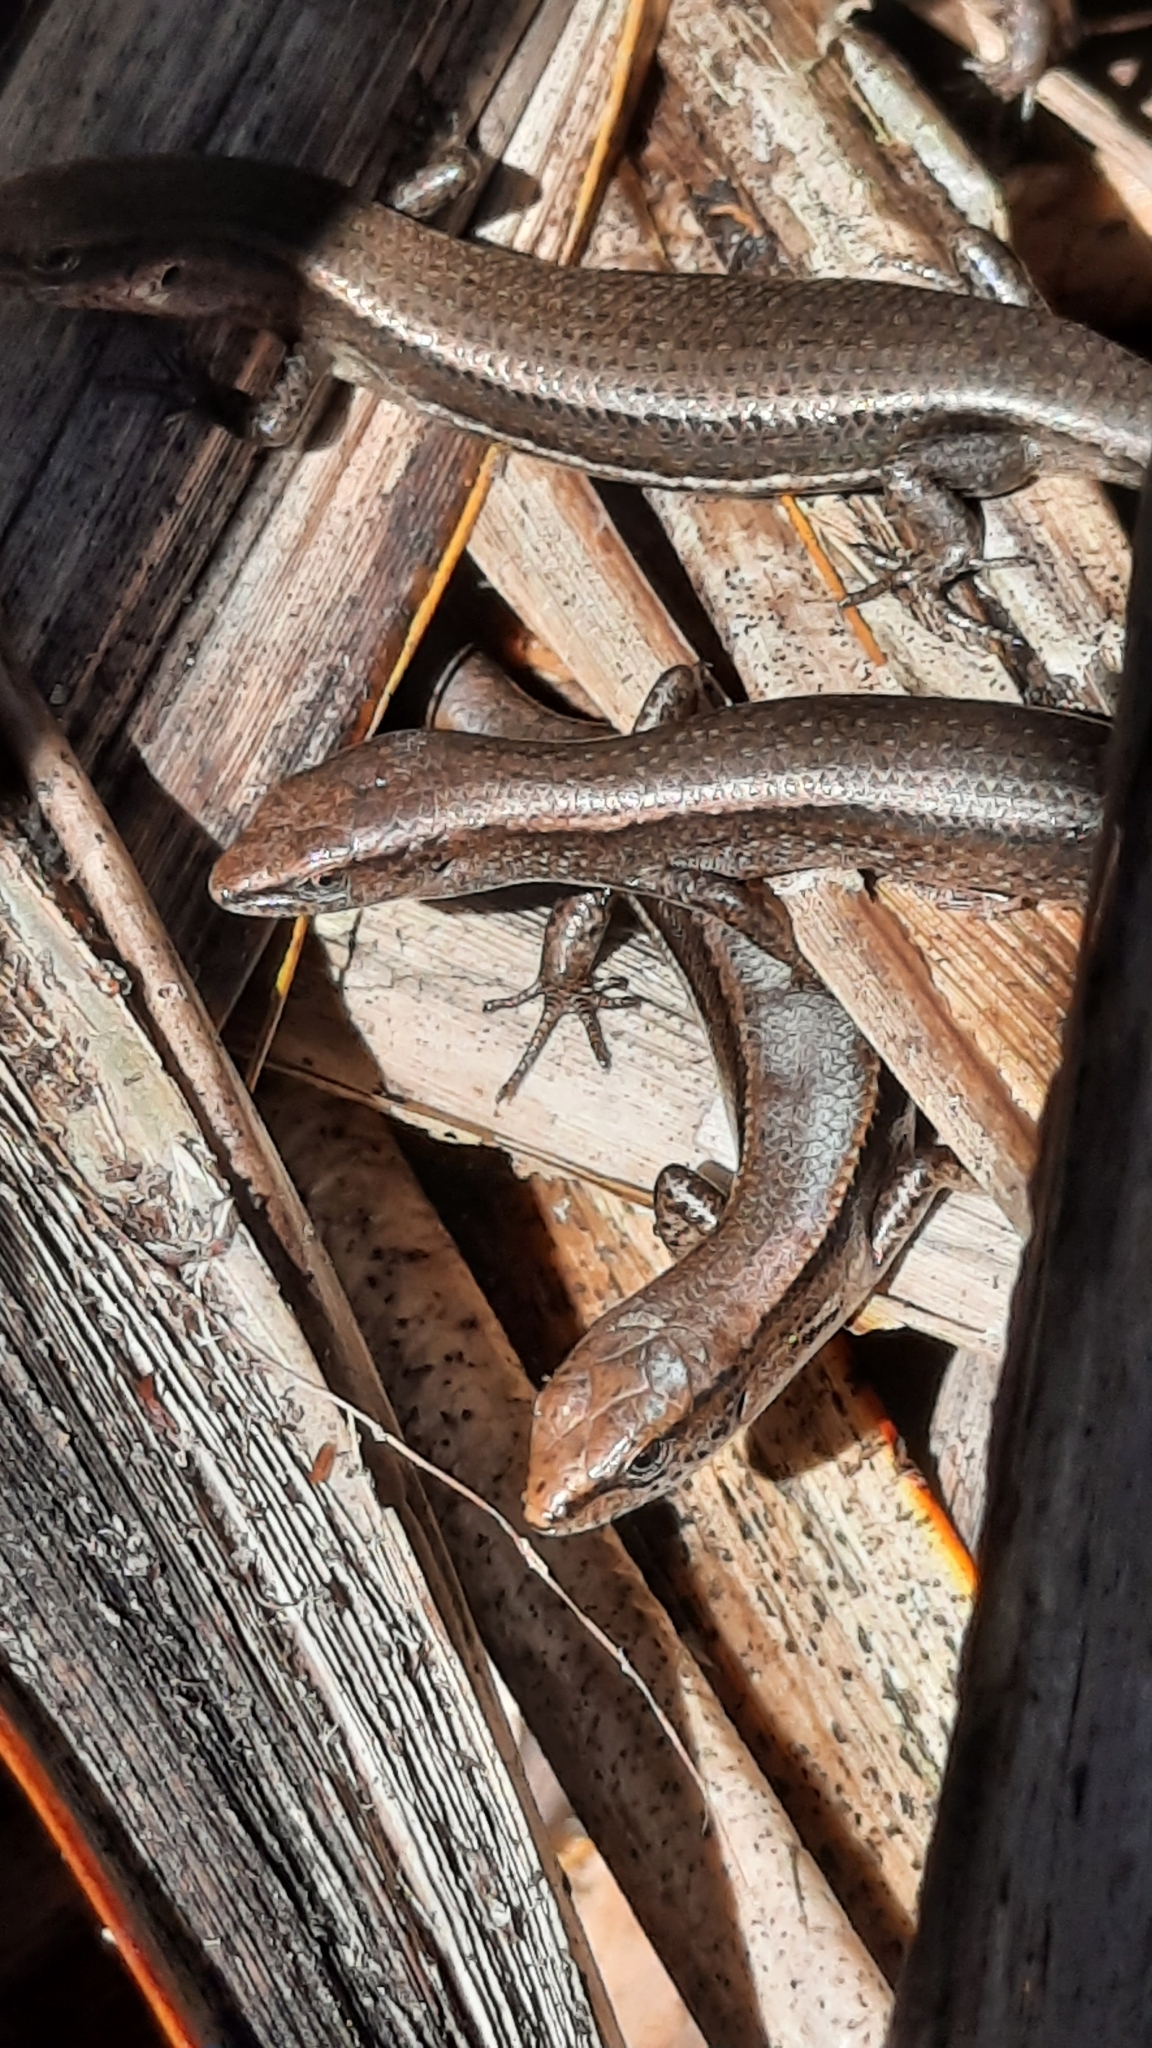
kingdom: Animalia
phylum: Chordata
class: Squamata
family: Scincidae
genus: Lampropholis
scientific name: Lampropholis delicata
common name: Plague skink
